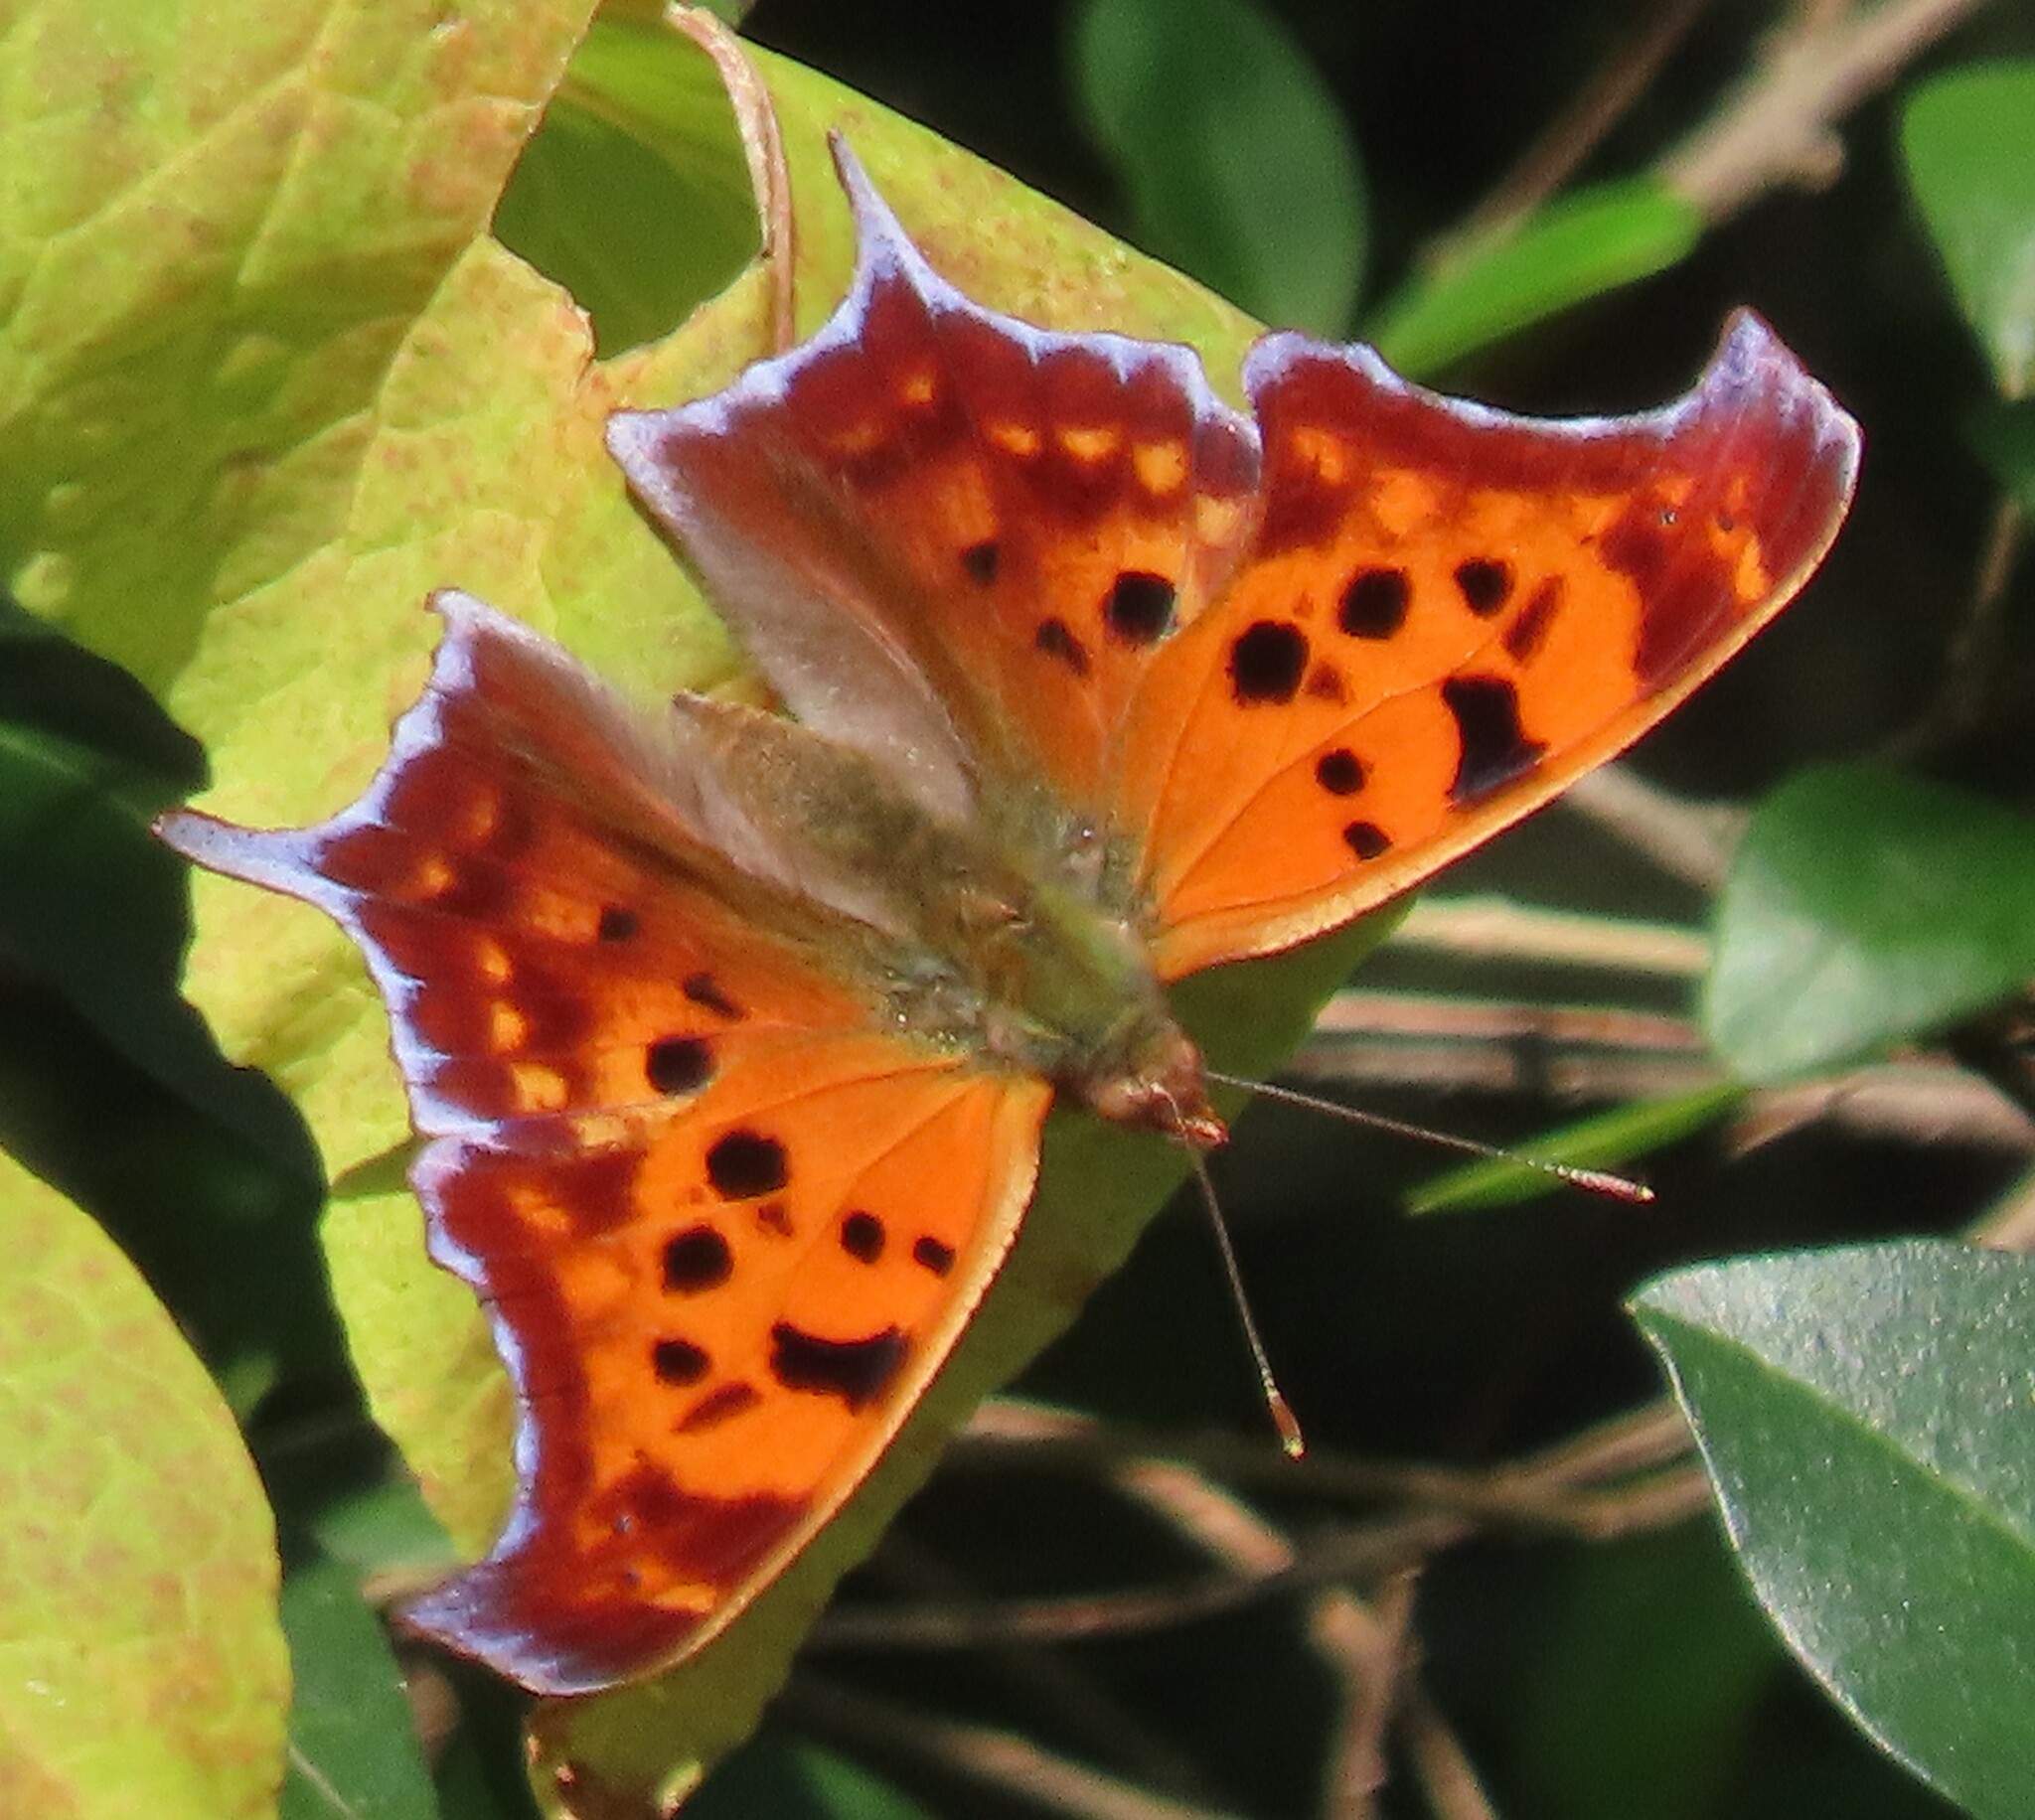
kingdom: Animalia
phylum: Arthropoda
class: Insecta
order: Lepidoptera
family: Nymphalidae
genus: Polygonia
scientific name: Polygonia interrogationis
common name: Question mark
